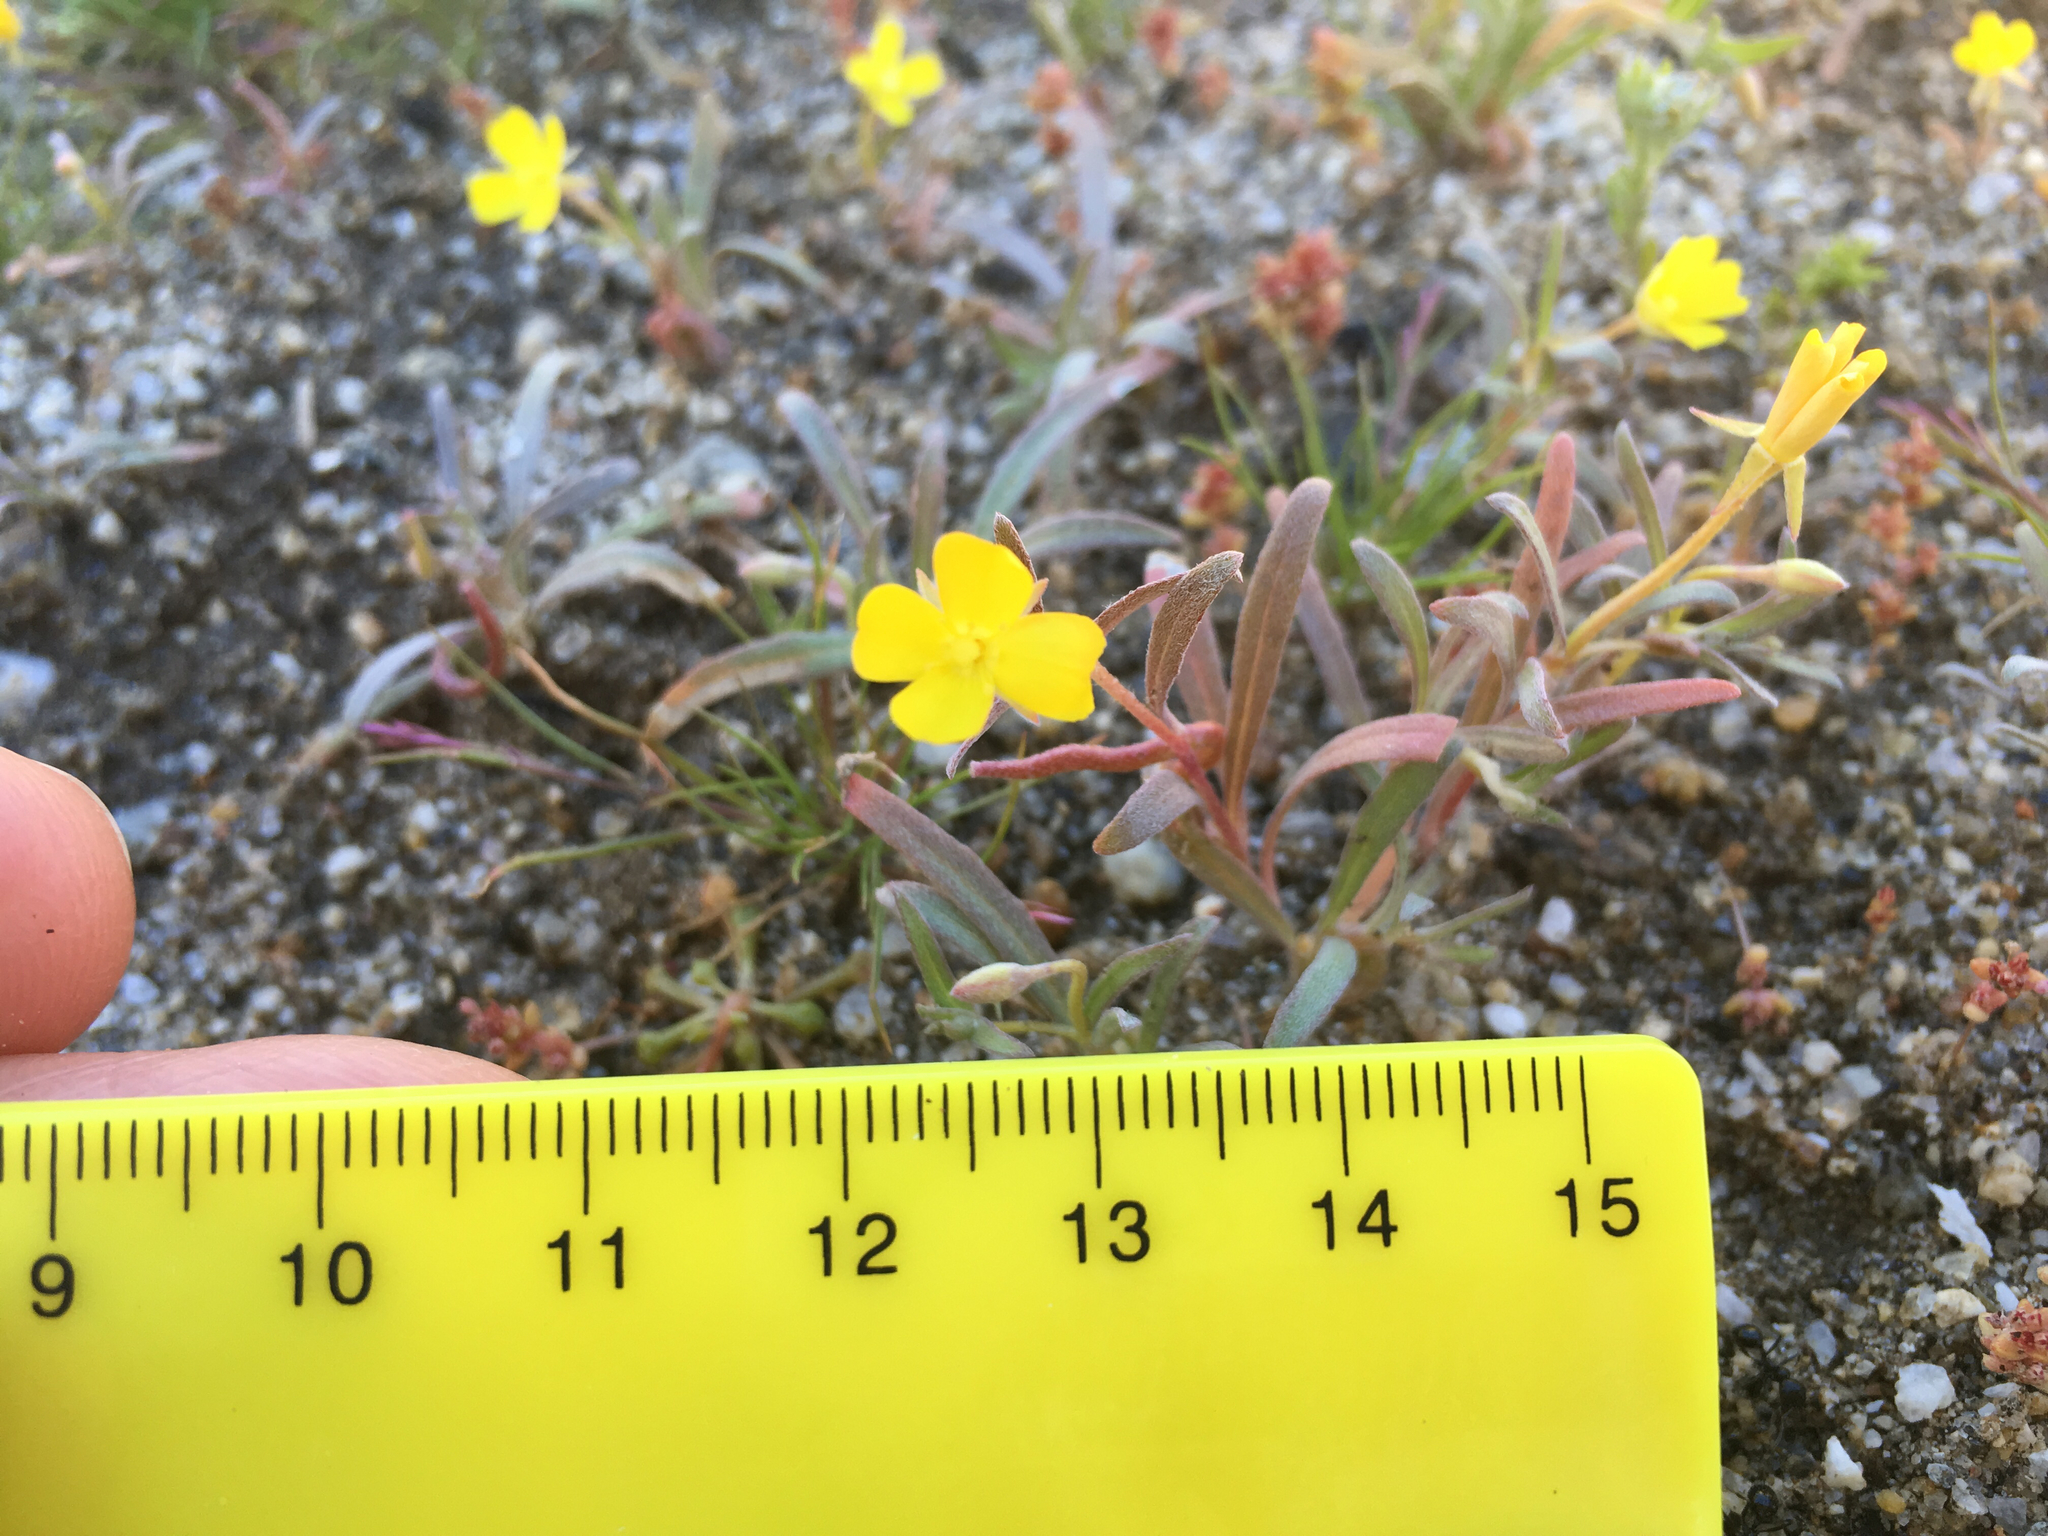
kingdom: Plantae
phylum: Tracheophyta
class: Magnoliopsida
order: Myrtales
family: Onagraceae
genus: Camissoniopsis
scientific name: Camissoniopsis pallida
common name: Paleyellow suncup
